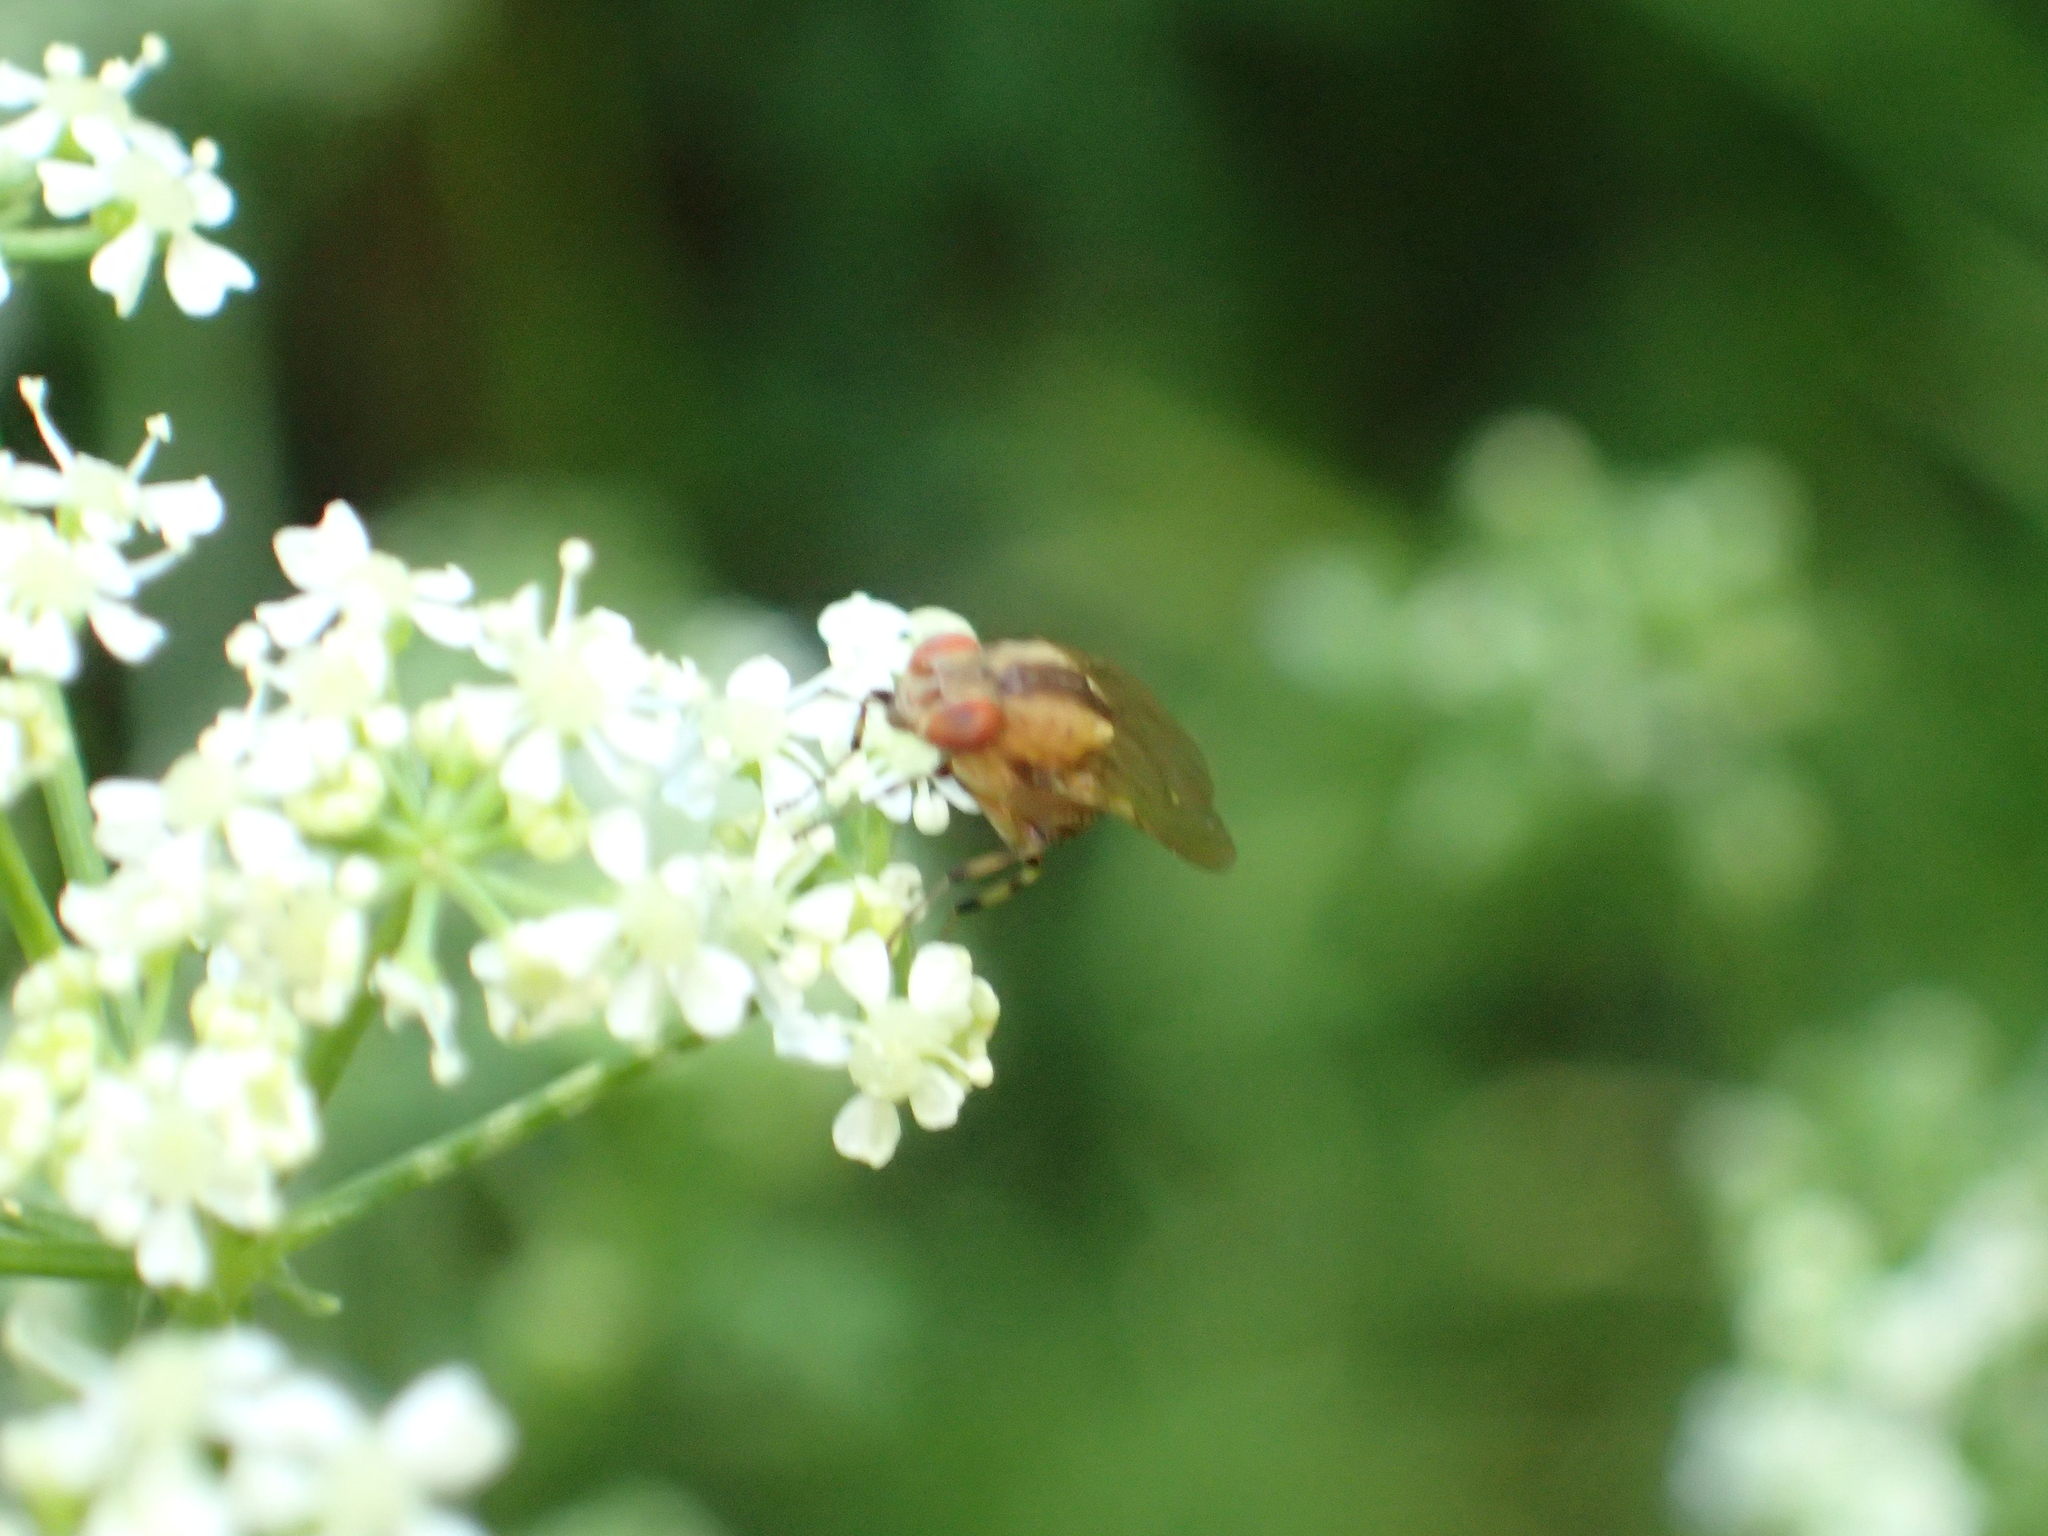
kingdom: Animalia
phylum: Arthropoda
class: Insecta
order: Diptera
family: Lauxaniidae
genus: Sapromyza
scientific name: Sapromyza neozelandica
